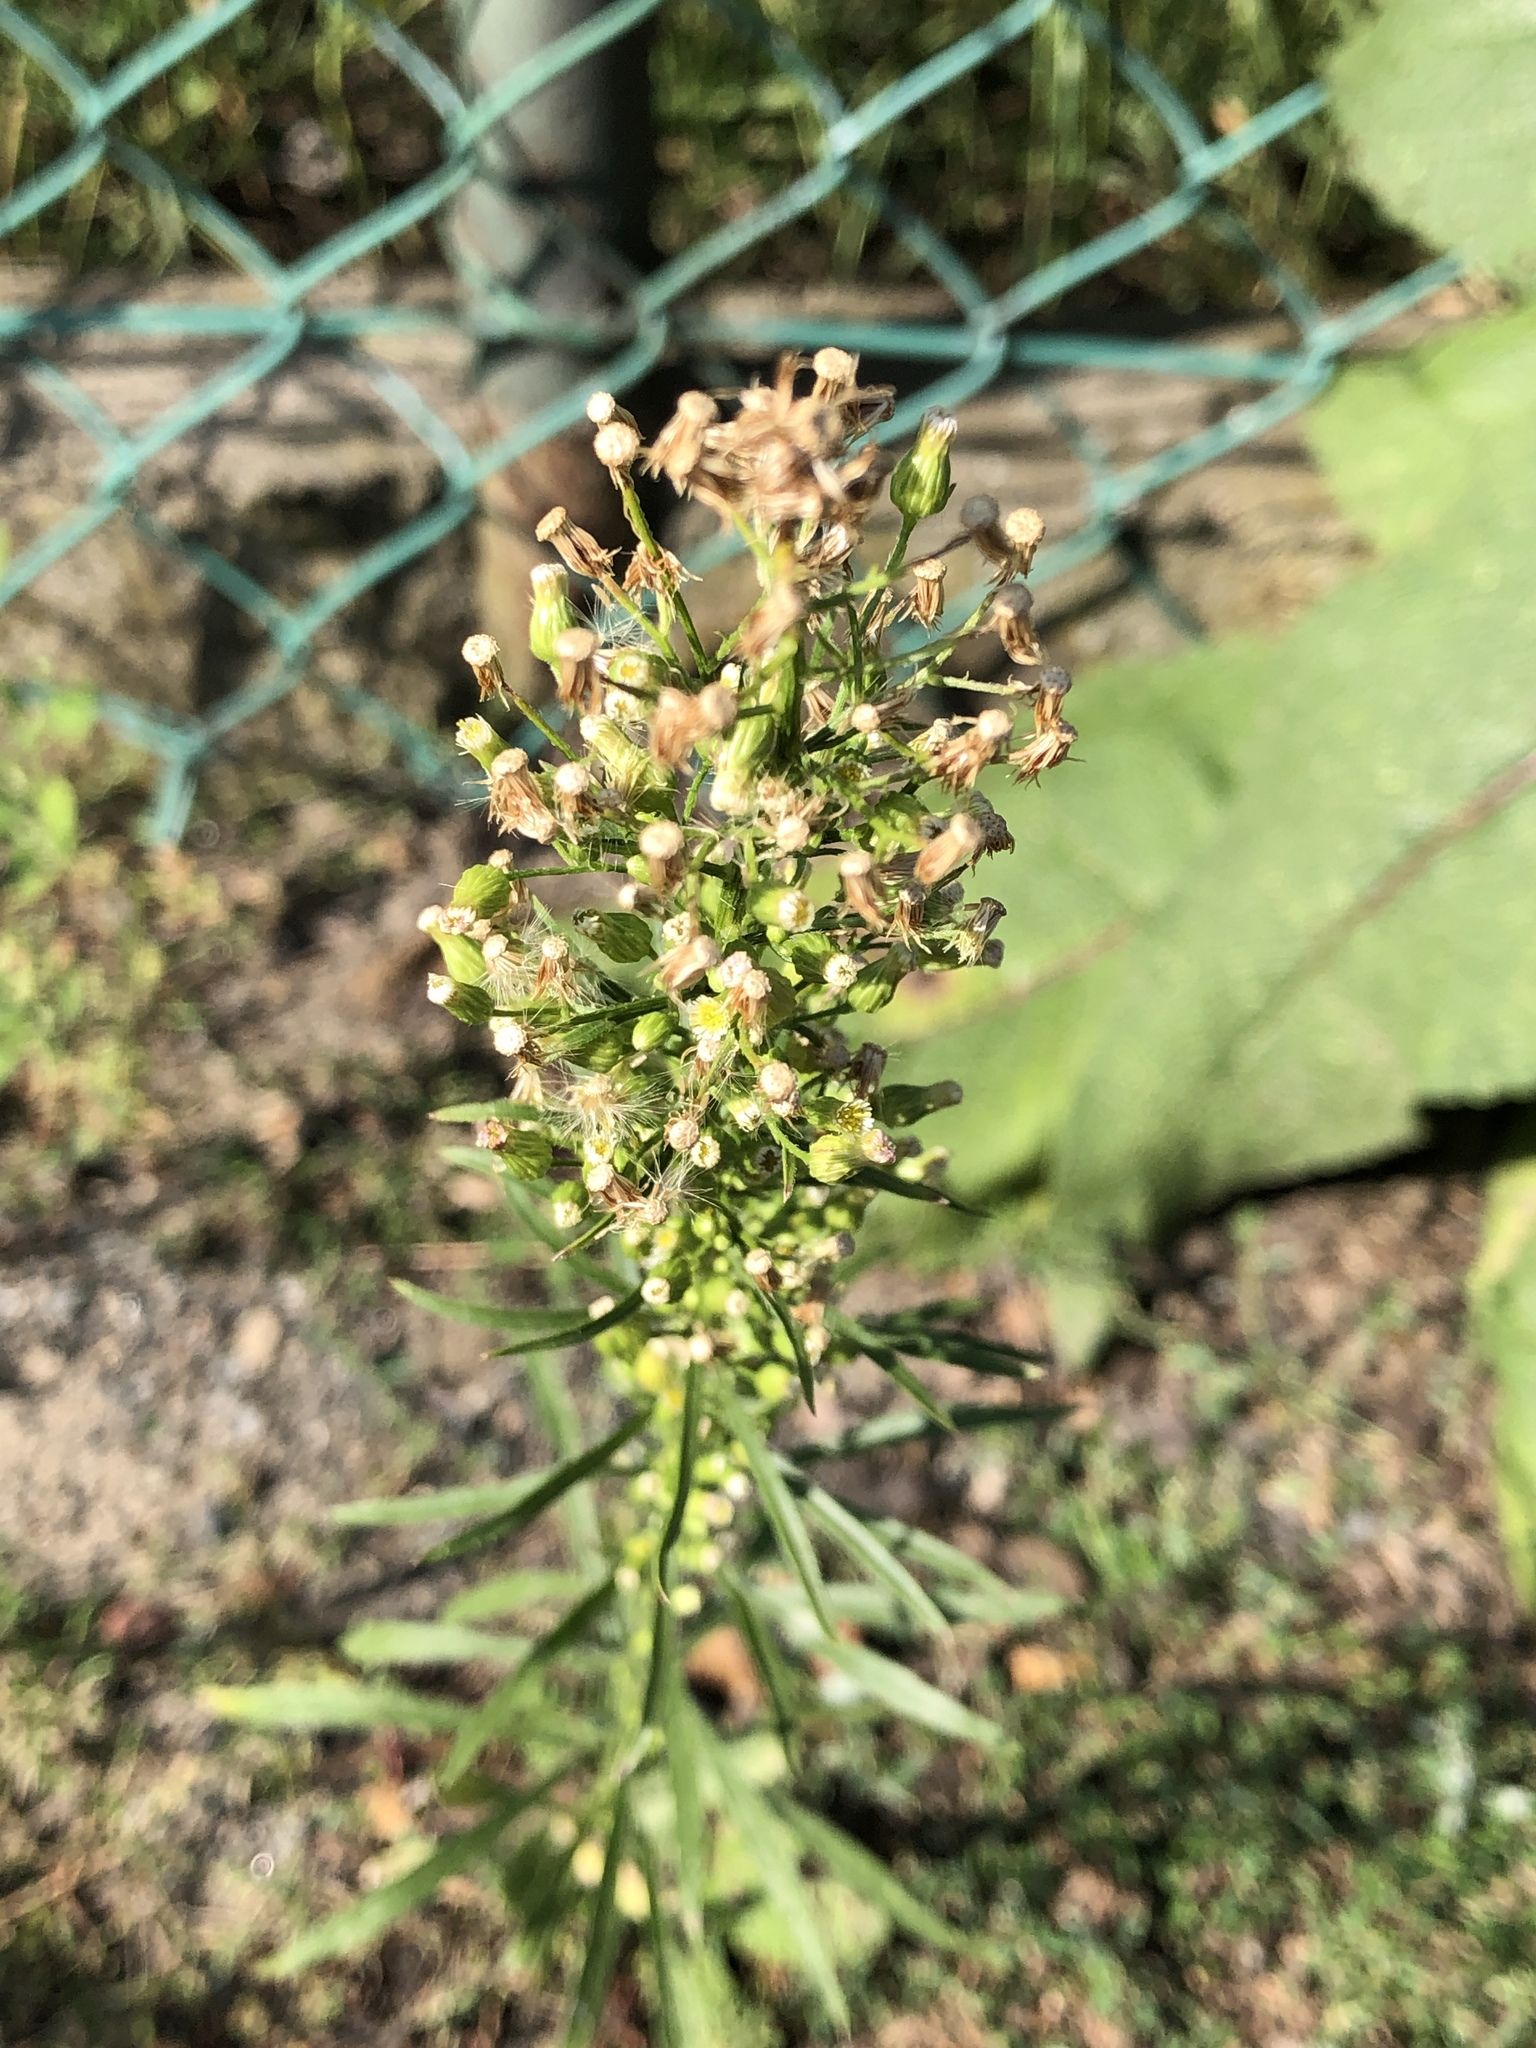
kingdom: Plantae
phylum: Tracheophyta
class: Magnoliopsida
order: Asterales
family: Asteraceae
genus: Erigeron
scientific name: Erigeron canadensis
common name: Canadian fleabane
